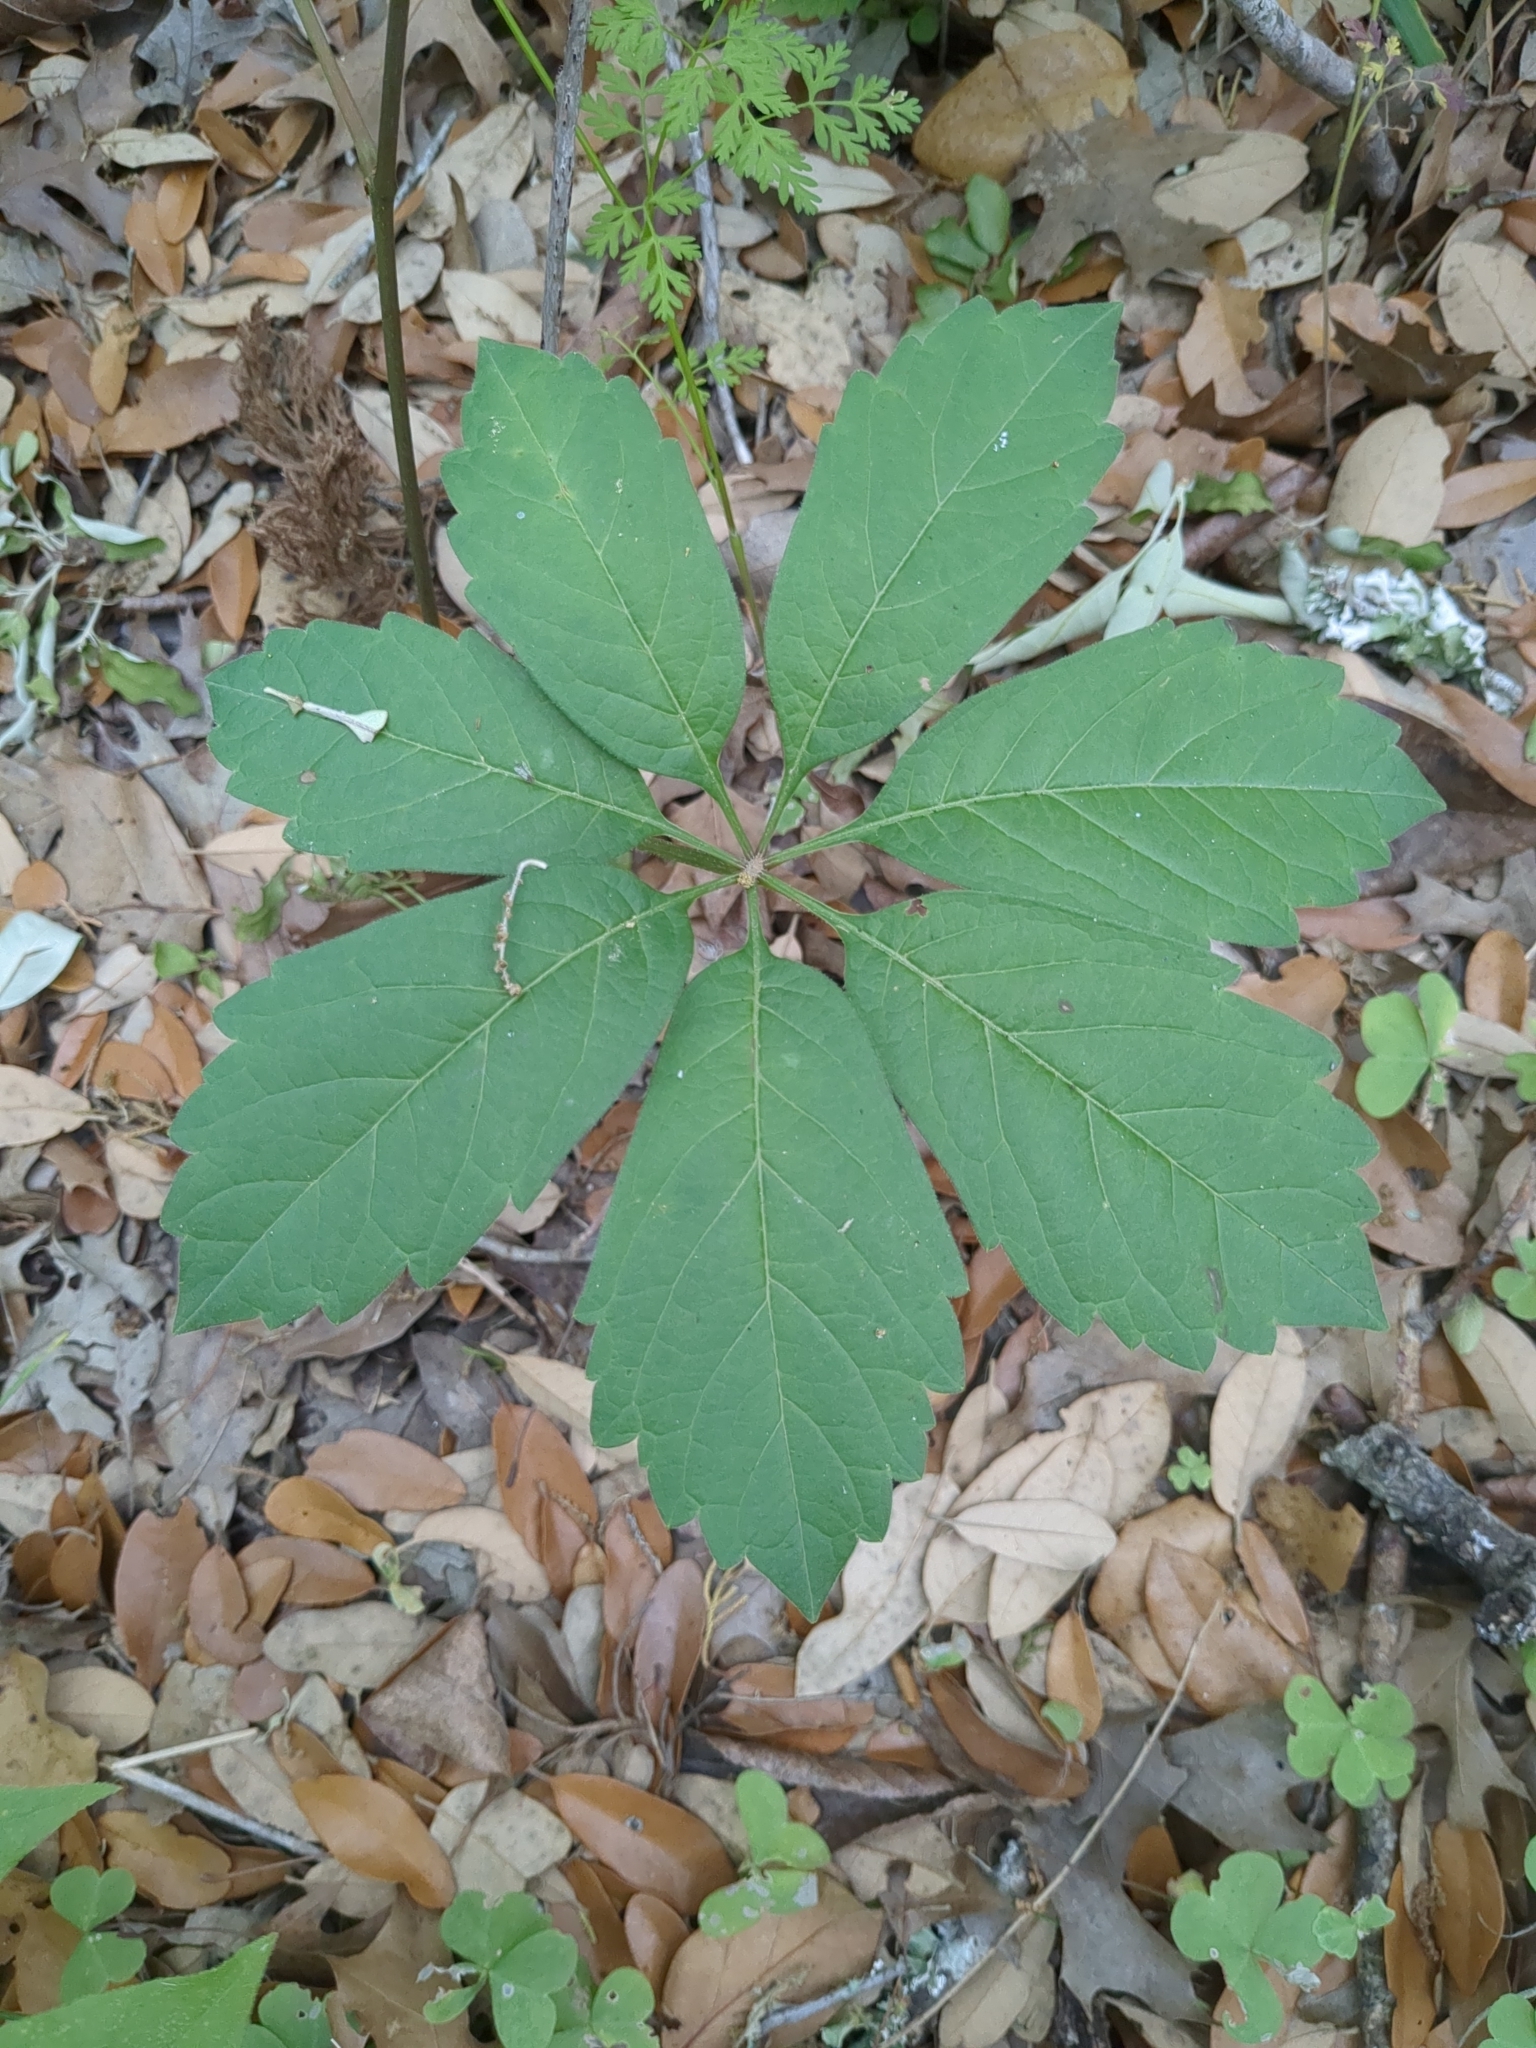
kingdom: Plantae
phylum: Tracheophyta
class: Magnoliopsida
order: Vitales
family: Vitaceae
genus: Parthenocissus
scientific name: Parthenocissus heptaphylla
